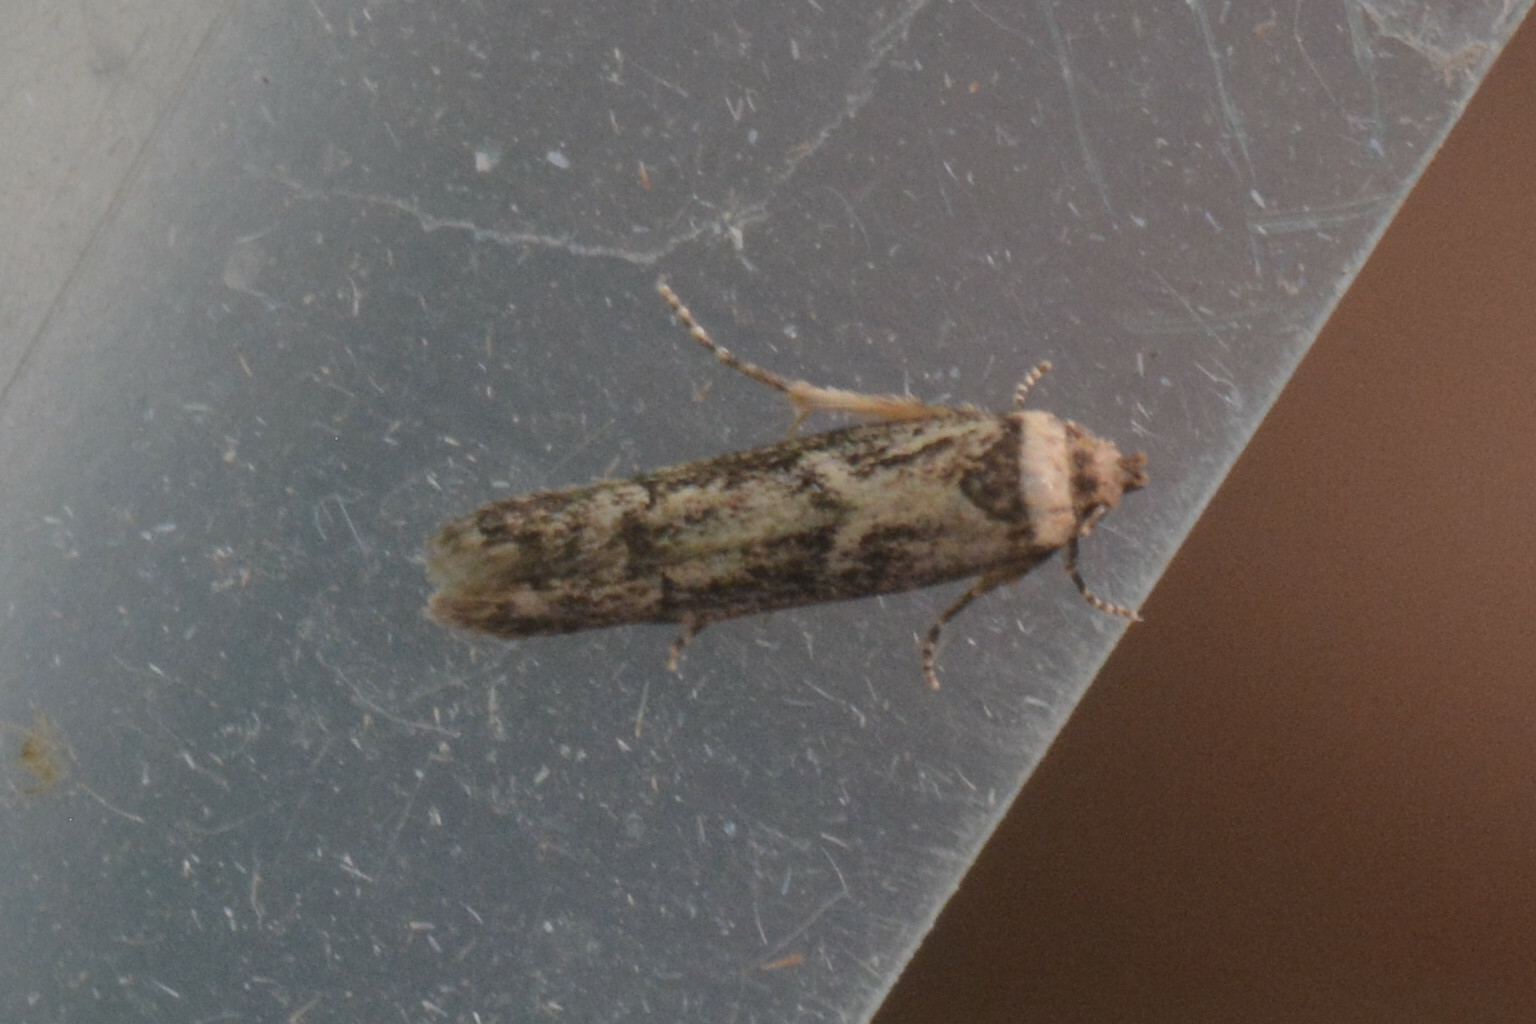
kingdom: Animalia
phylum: Arthropoda
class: Insecta
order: Lepidoptera
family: Blastobasidae
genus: Blastobasis
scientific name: Blastobasis adustella
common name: Dingy dowd
